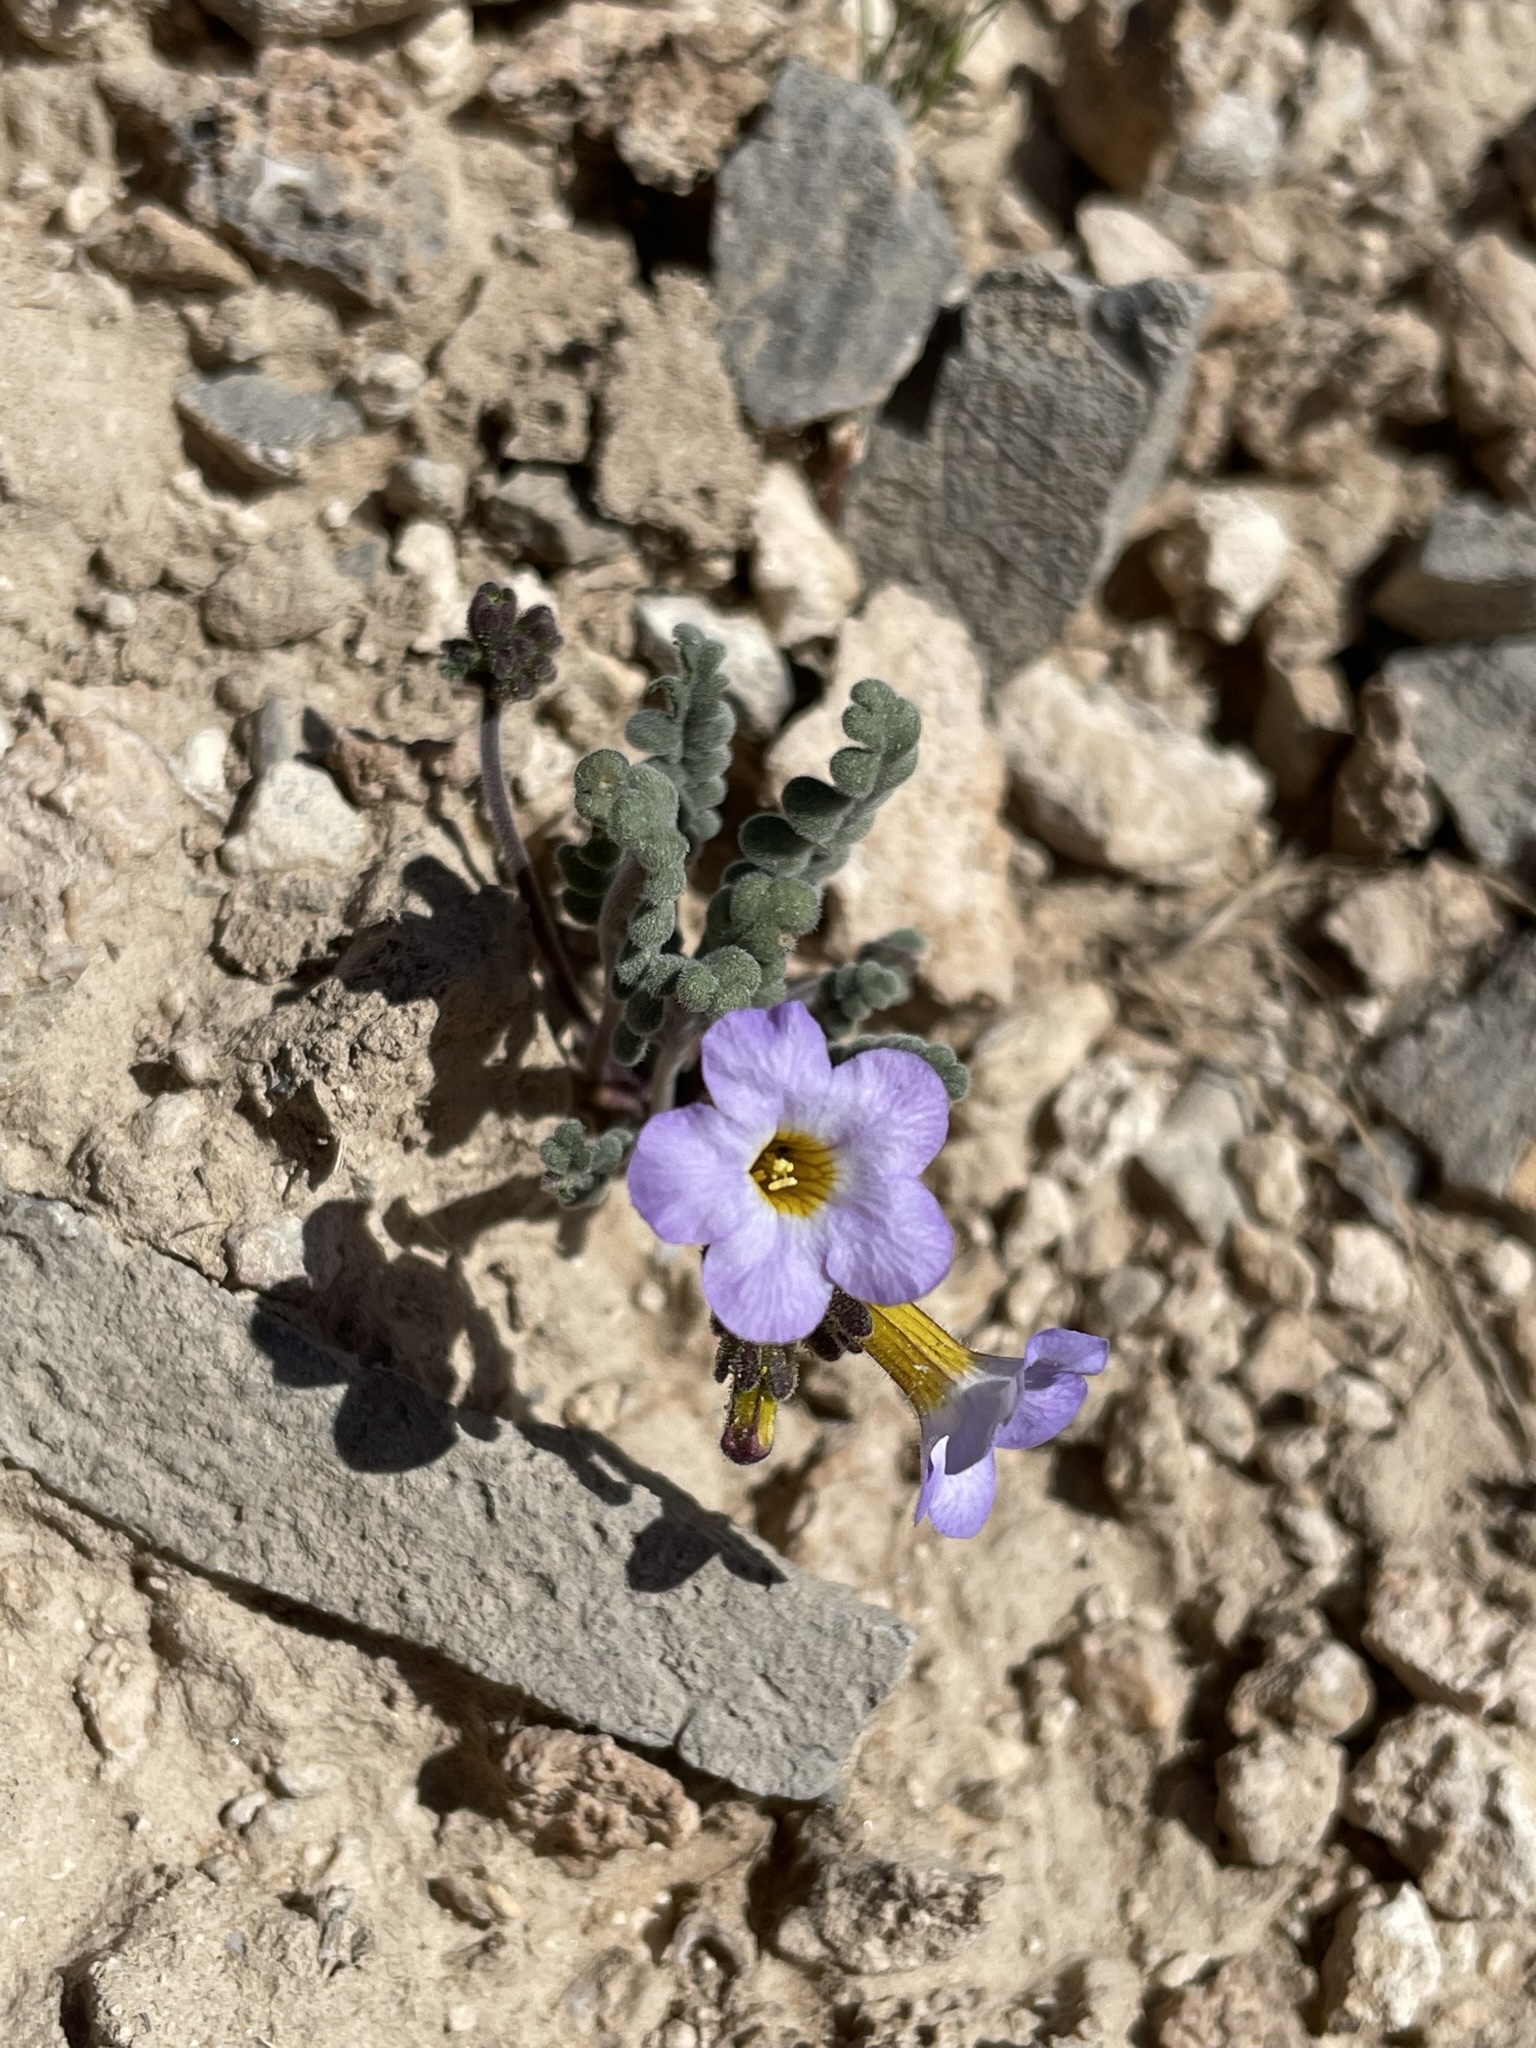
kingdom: Plantae
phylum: Tracheophyta
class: Magnoliopsida
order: Boraginales
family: Hydrophyllaceae
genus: Phacelia
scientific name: Phacelia fremontii
